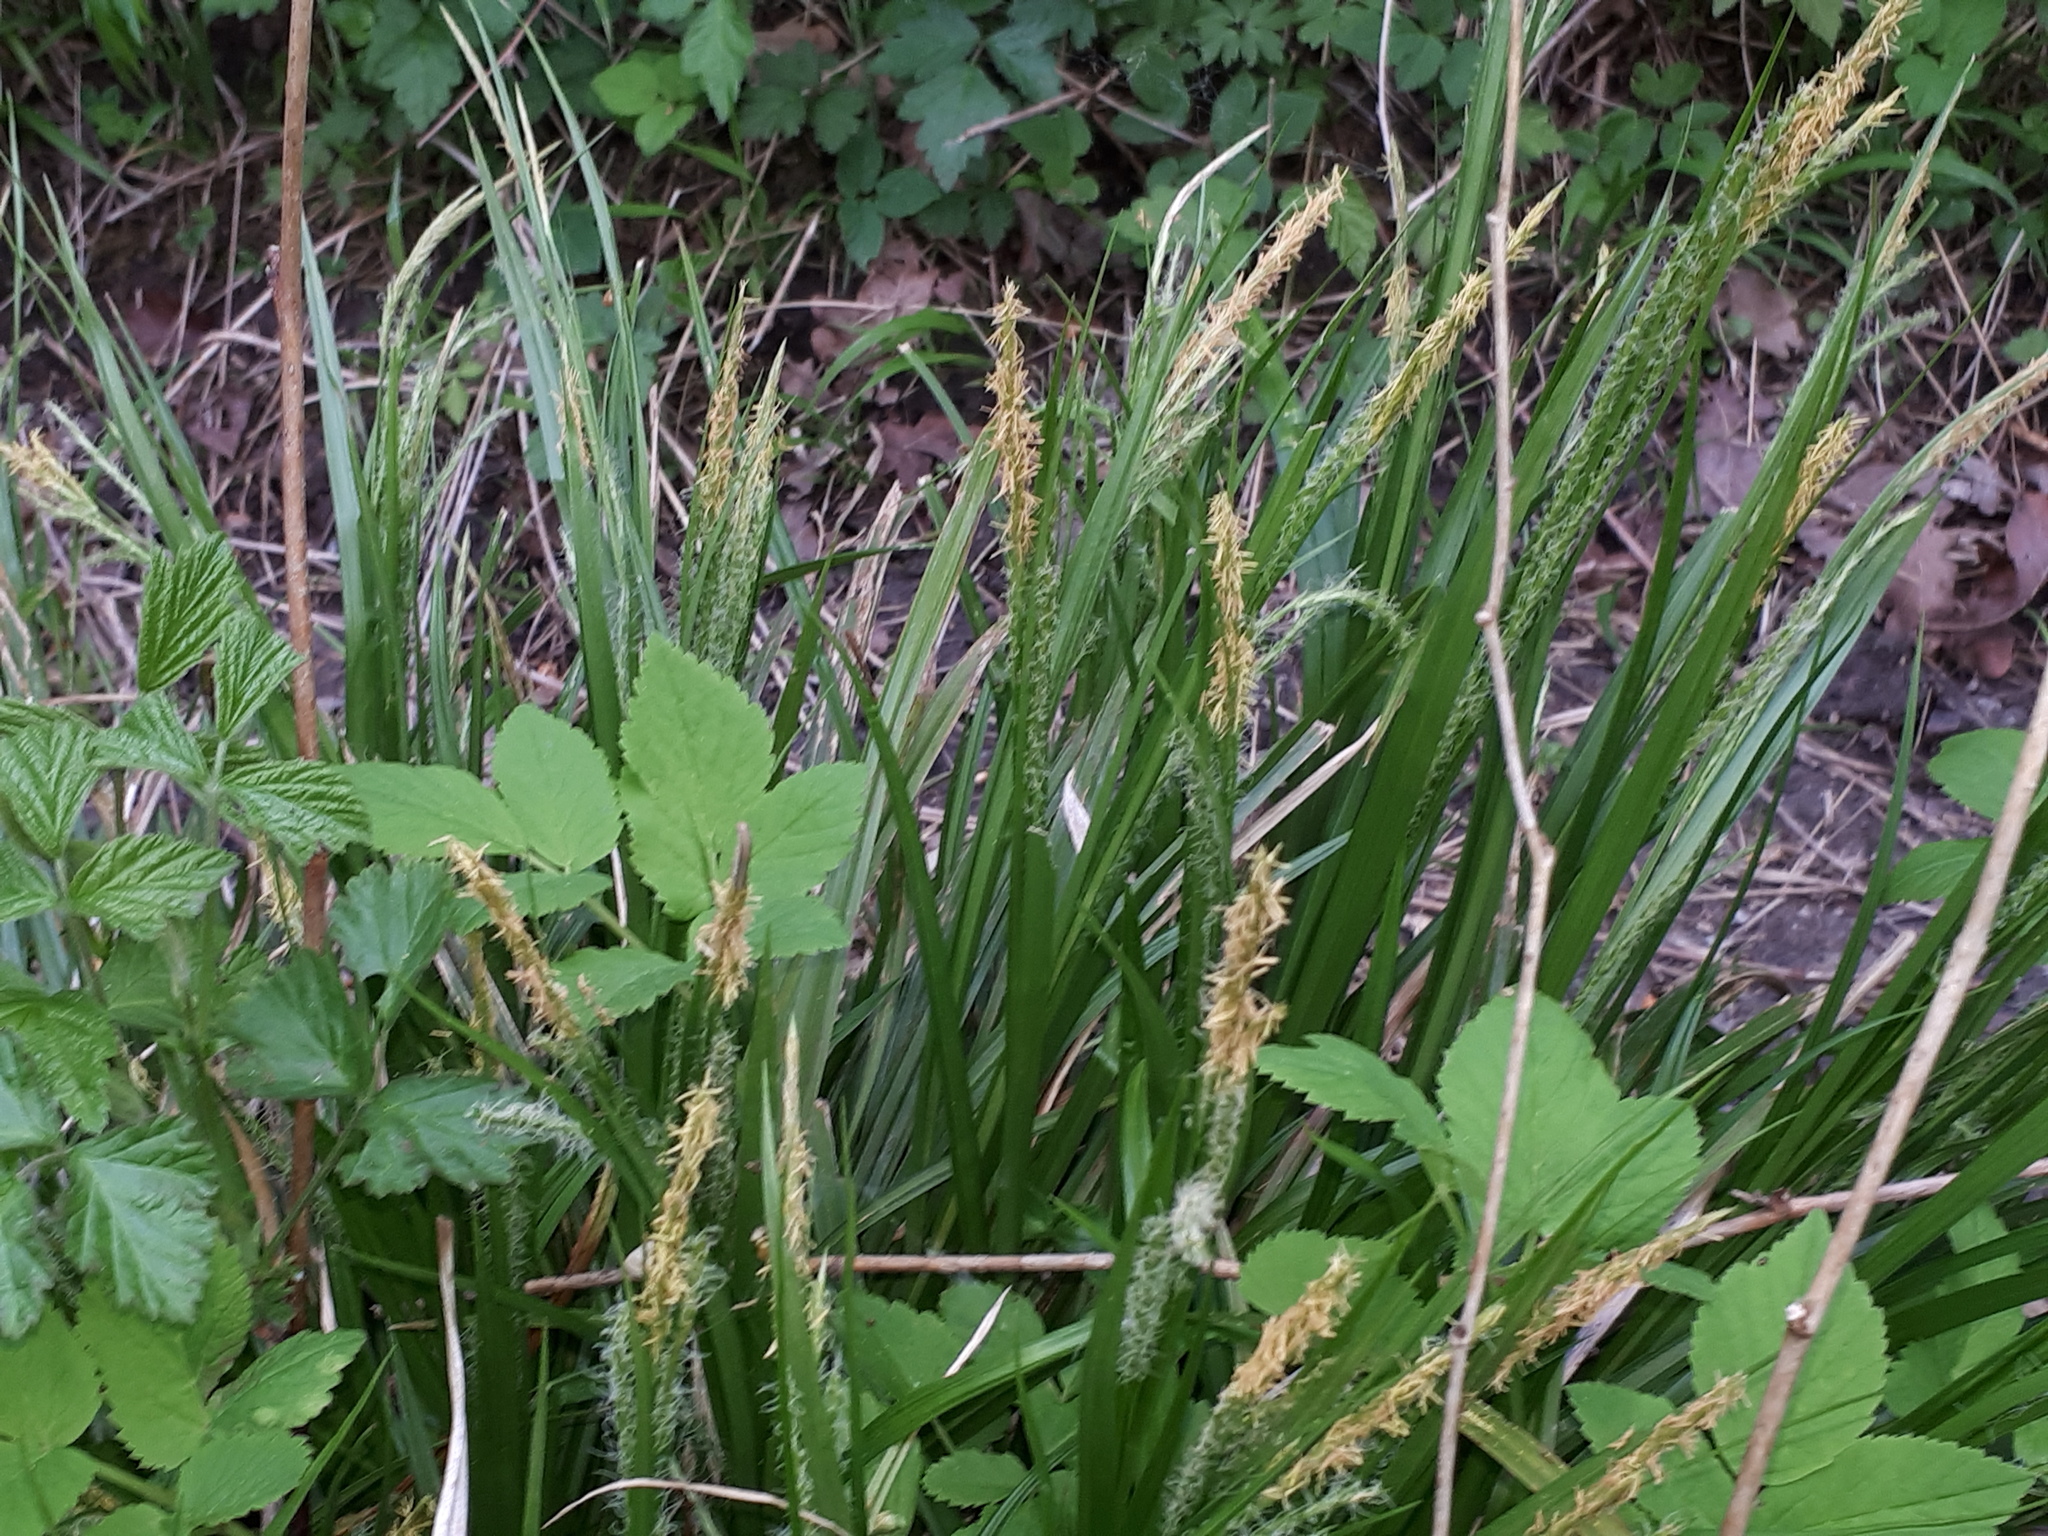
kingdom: Plantae
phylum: Tracheophyta
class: Liliopsida
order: Poales
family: Cyperaceae
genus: Carex
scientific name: Carex sylvatica
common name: Wood-sedge
